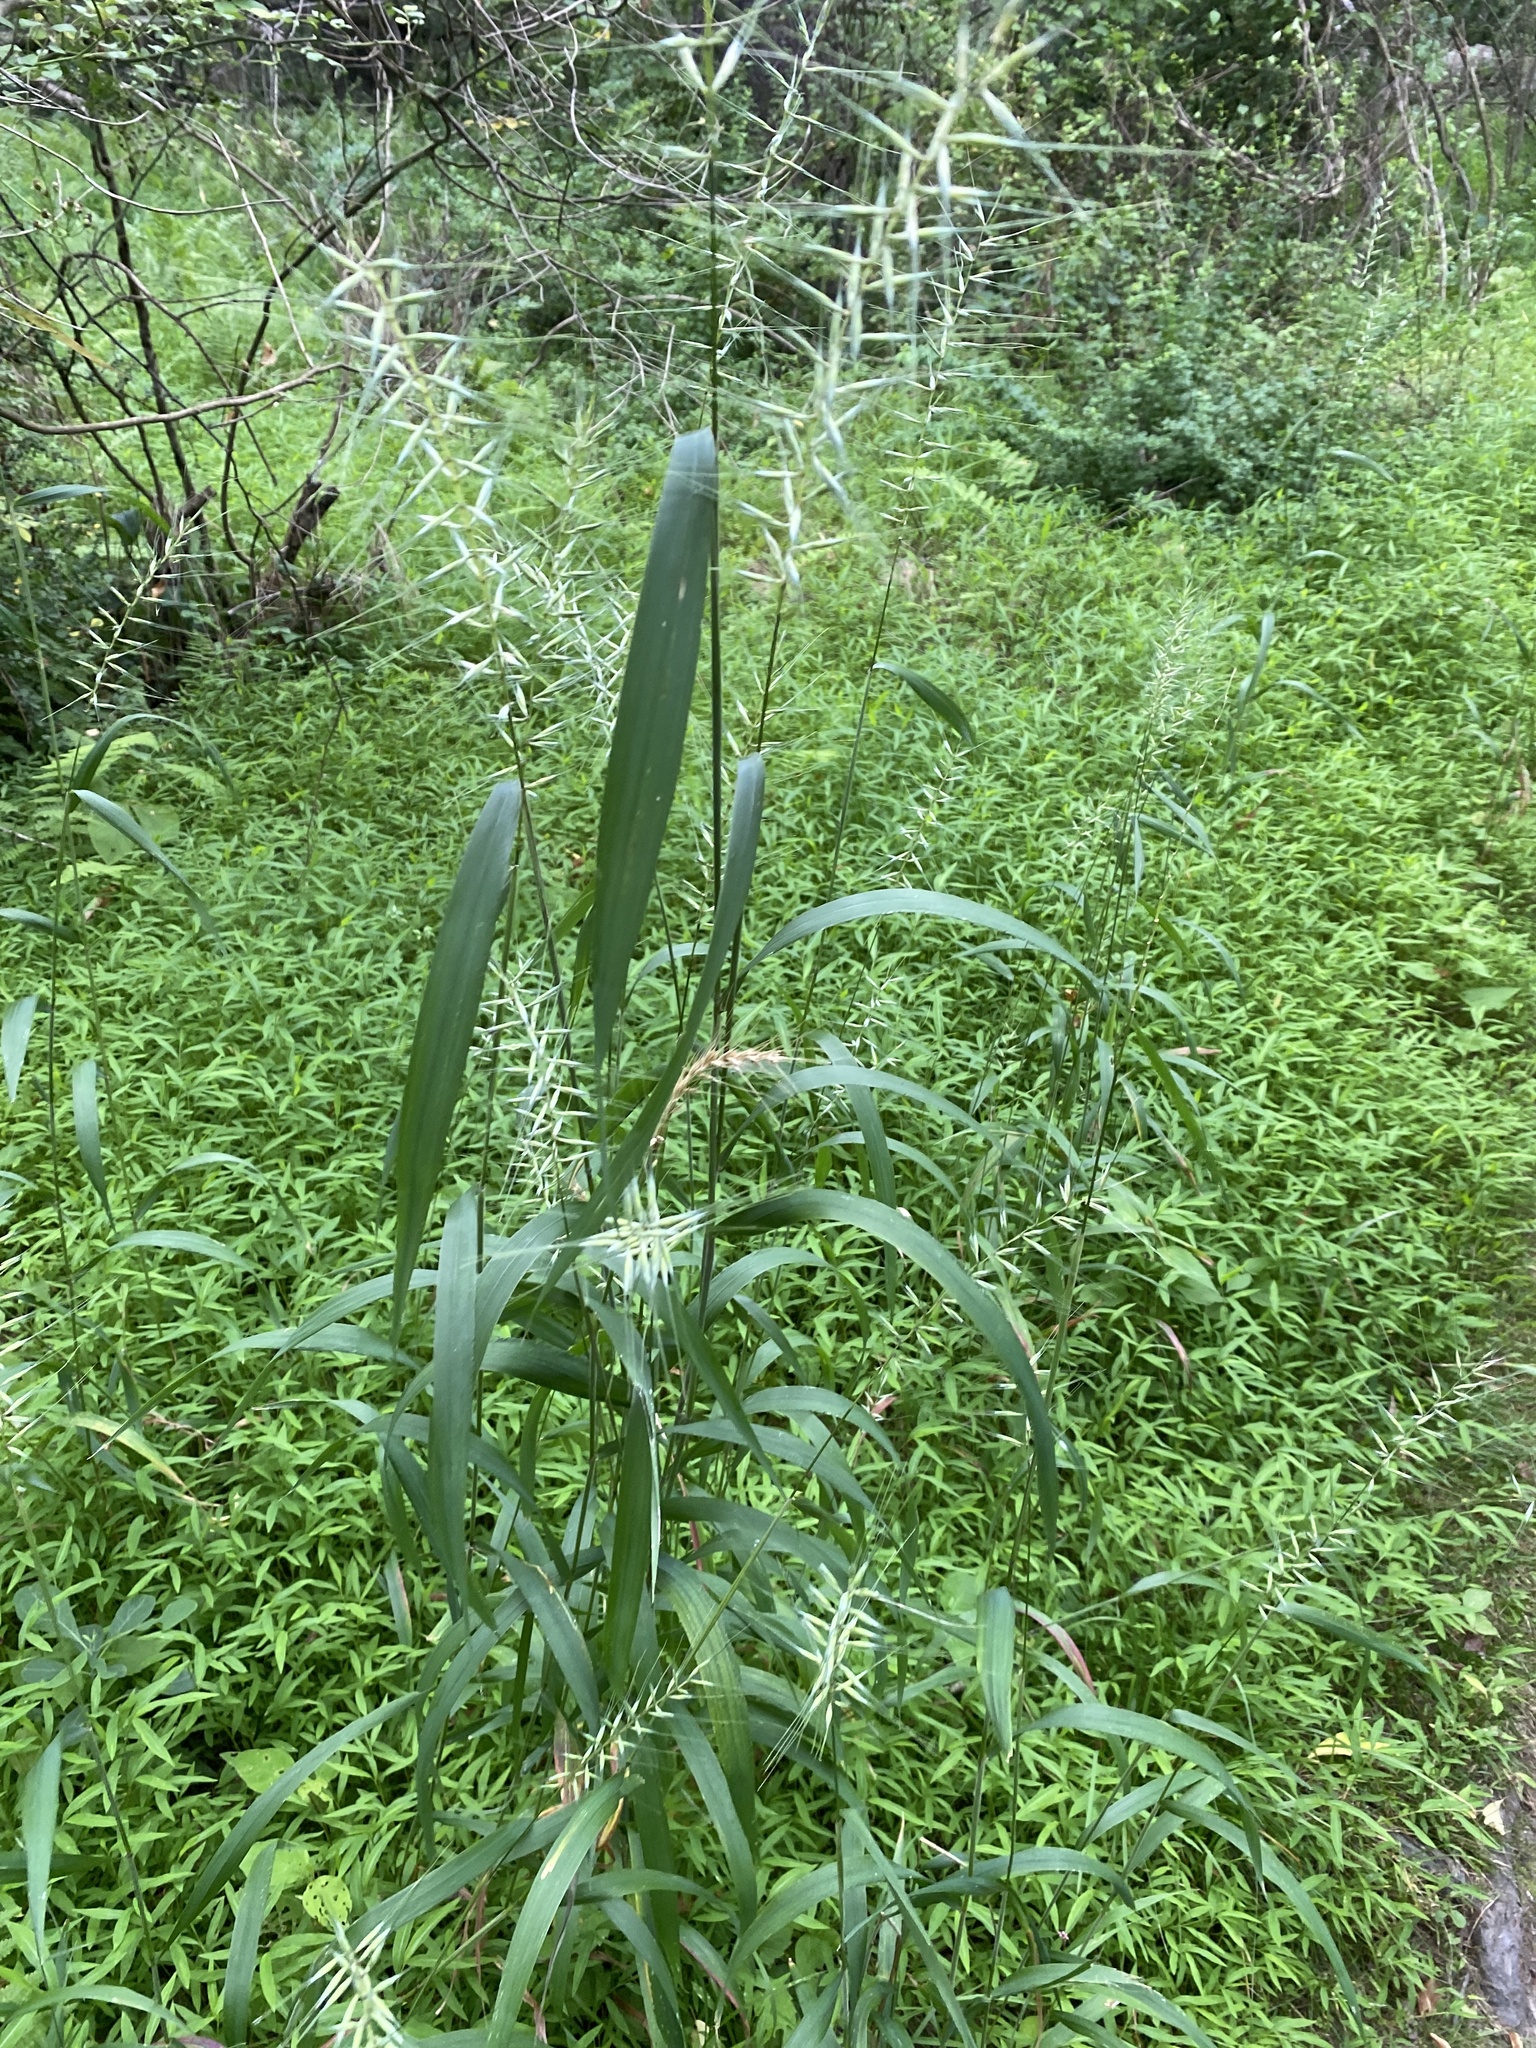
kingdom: Plantae
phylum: Tracheophyta
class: Liliopsida
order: Poales
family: Poaceae
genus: Elymus
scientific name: Elymus hystrix
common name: Bottlebrush grass
